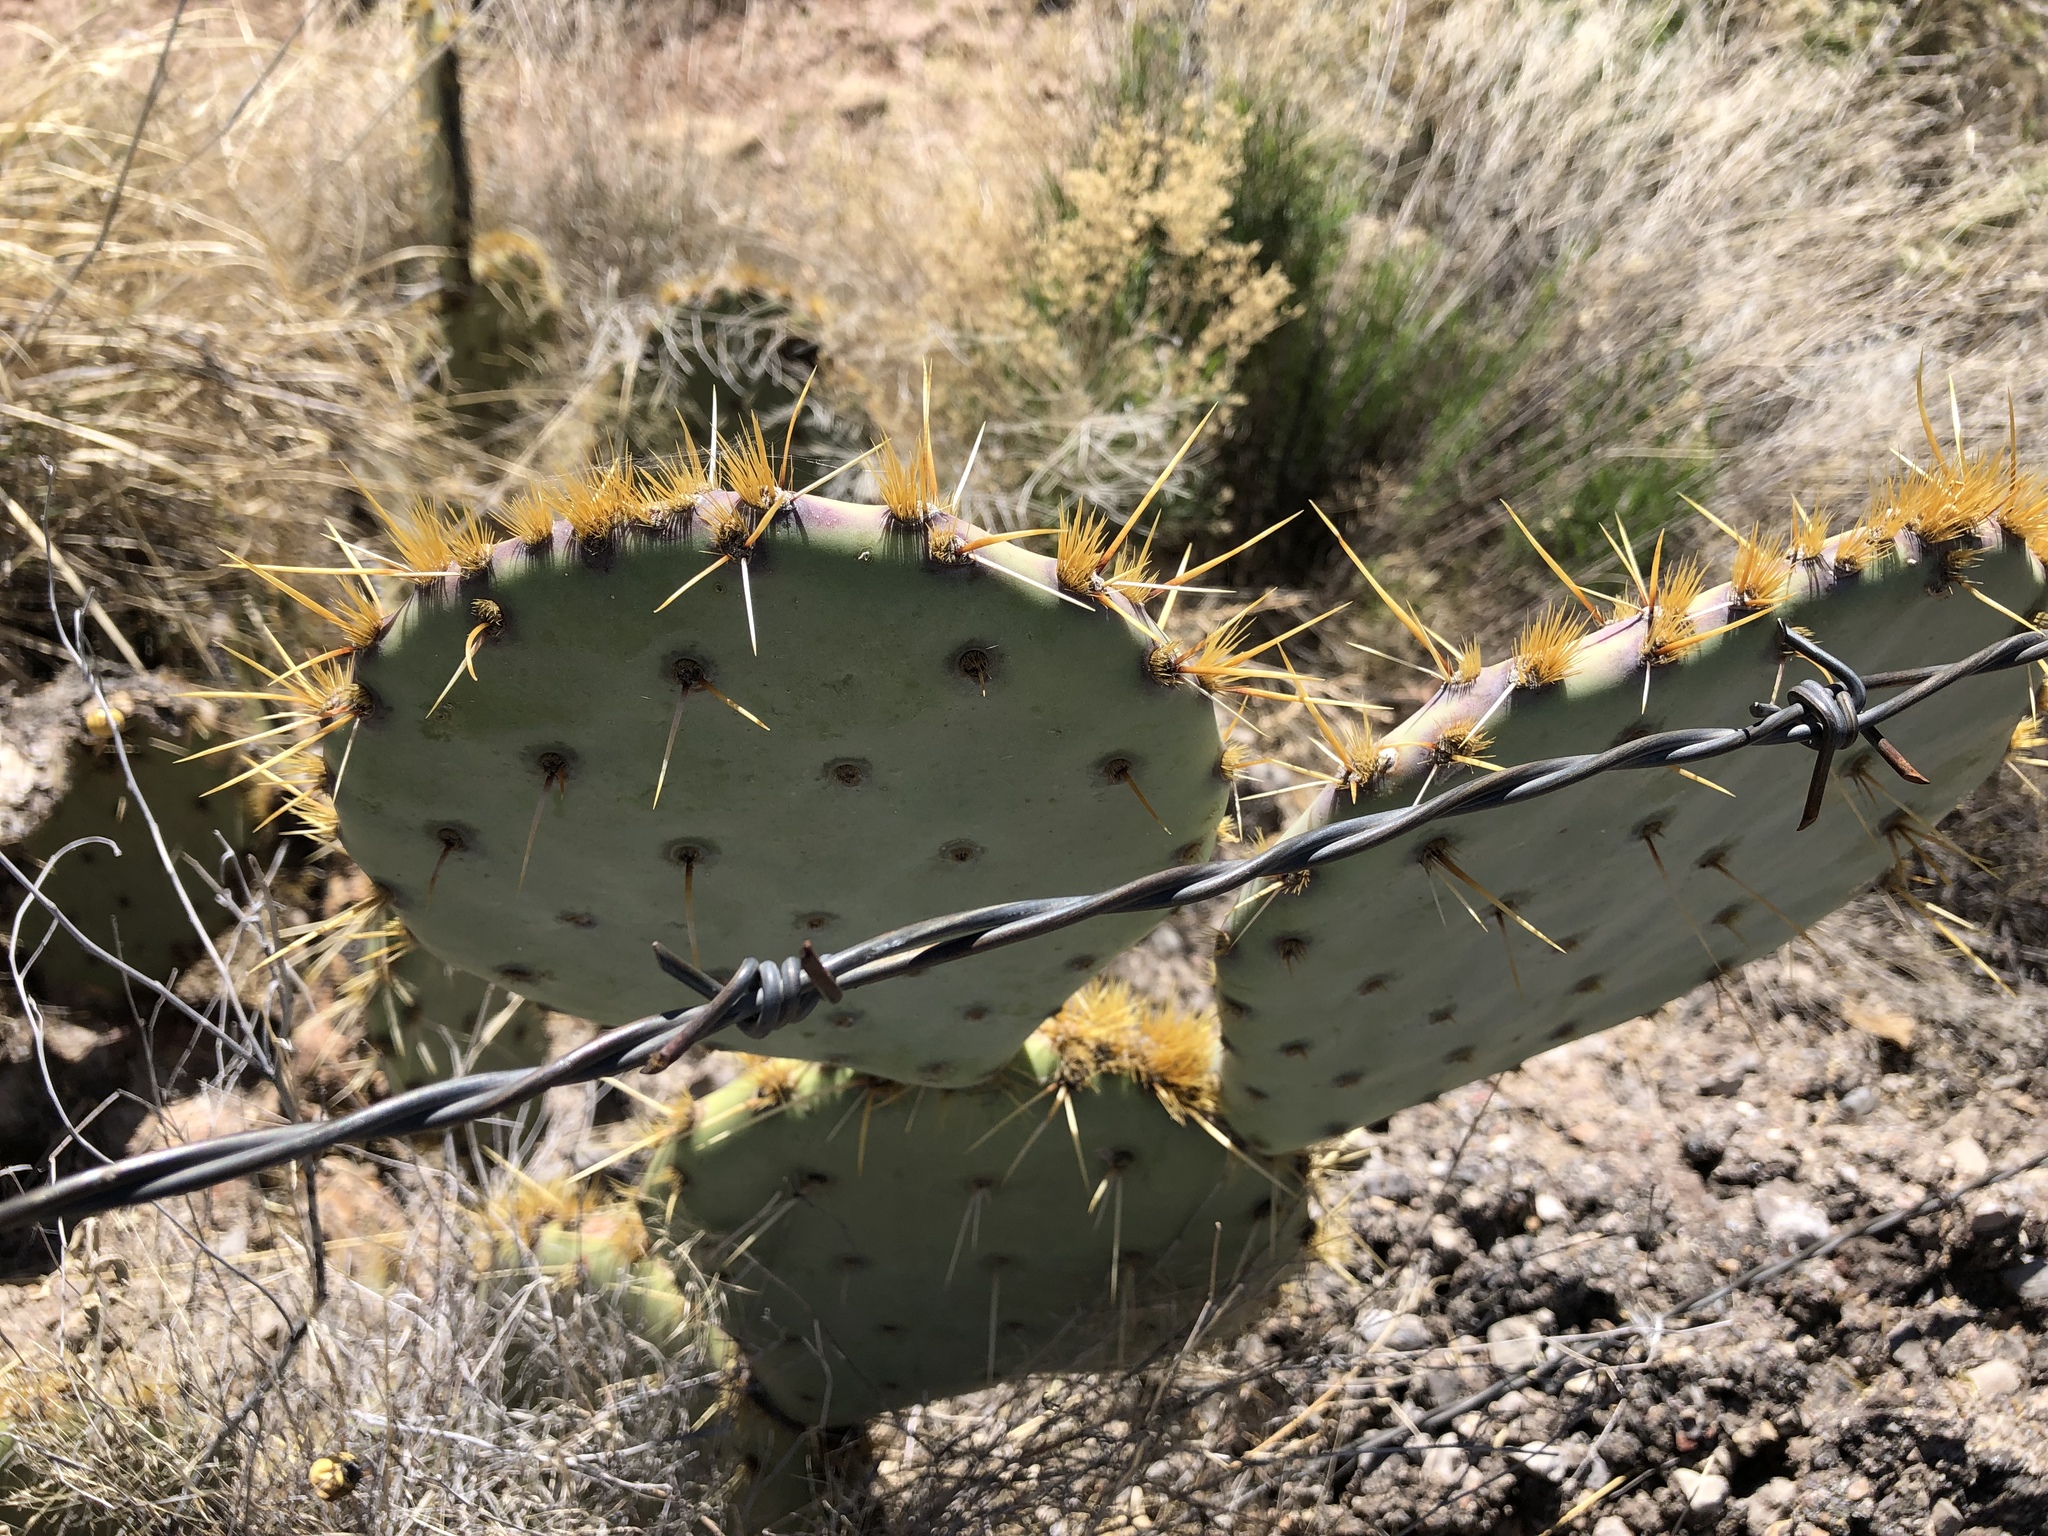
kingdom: Plantae
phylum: Tracheophyta
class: Magnoliopsida
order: Caryophyllales
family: Cactaceae
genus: Opuntia
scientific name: Opuntia engelmannii
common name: Cactus-apple
